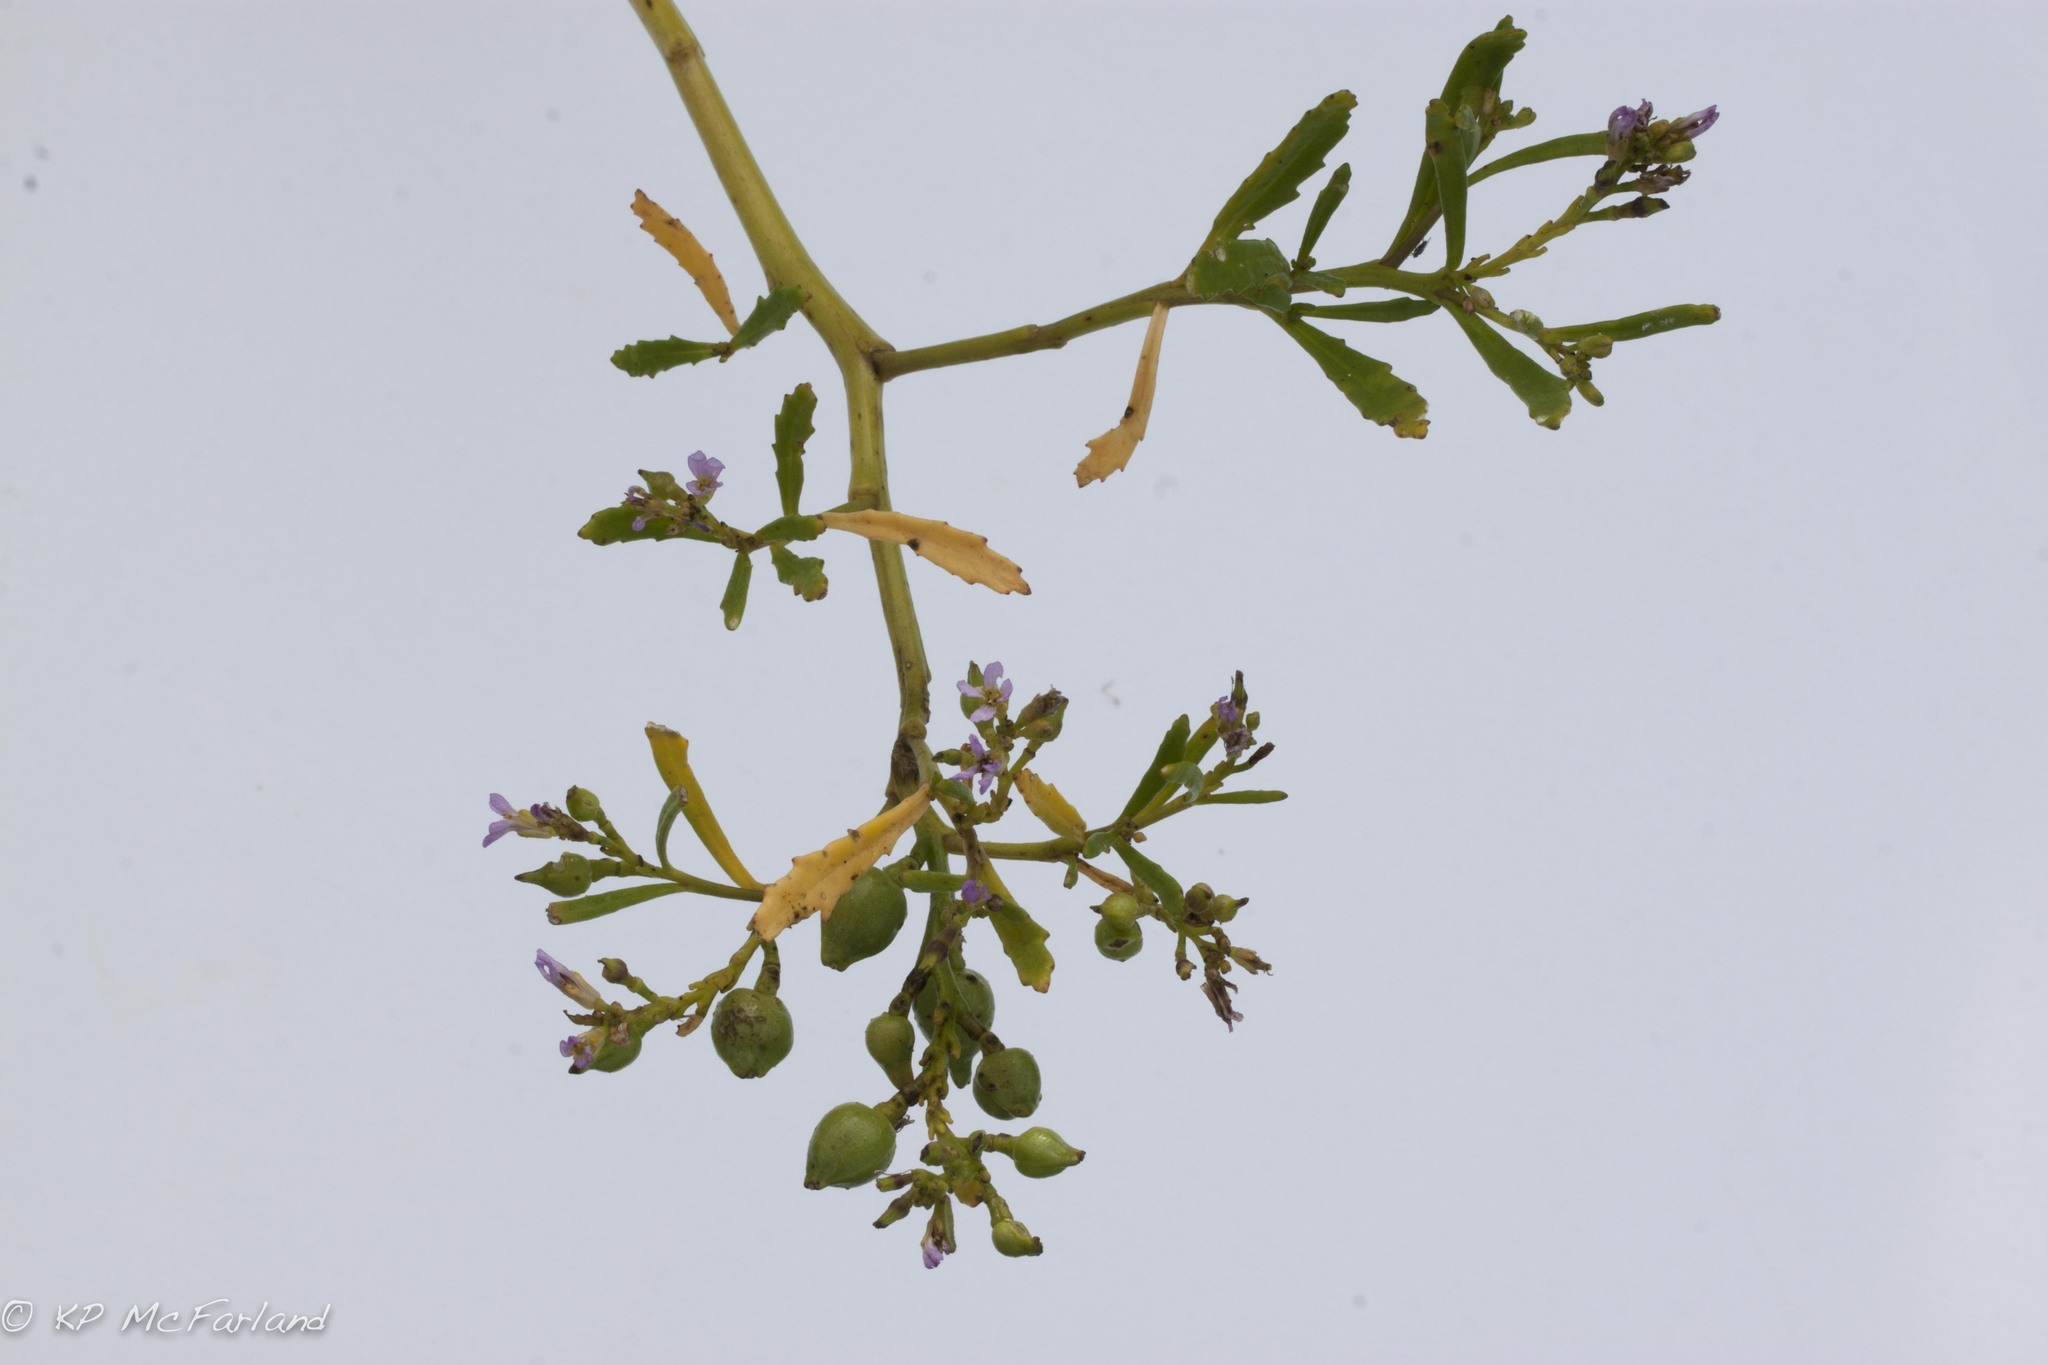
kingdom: Plantae
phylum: Tracheophyta
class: Magnoliopsida
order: Brassicales
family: Brassicaceae
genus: Cakile
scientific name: Cakile edentula
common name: American sea rocket
